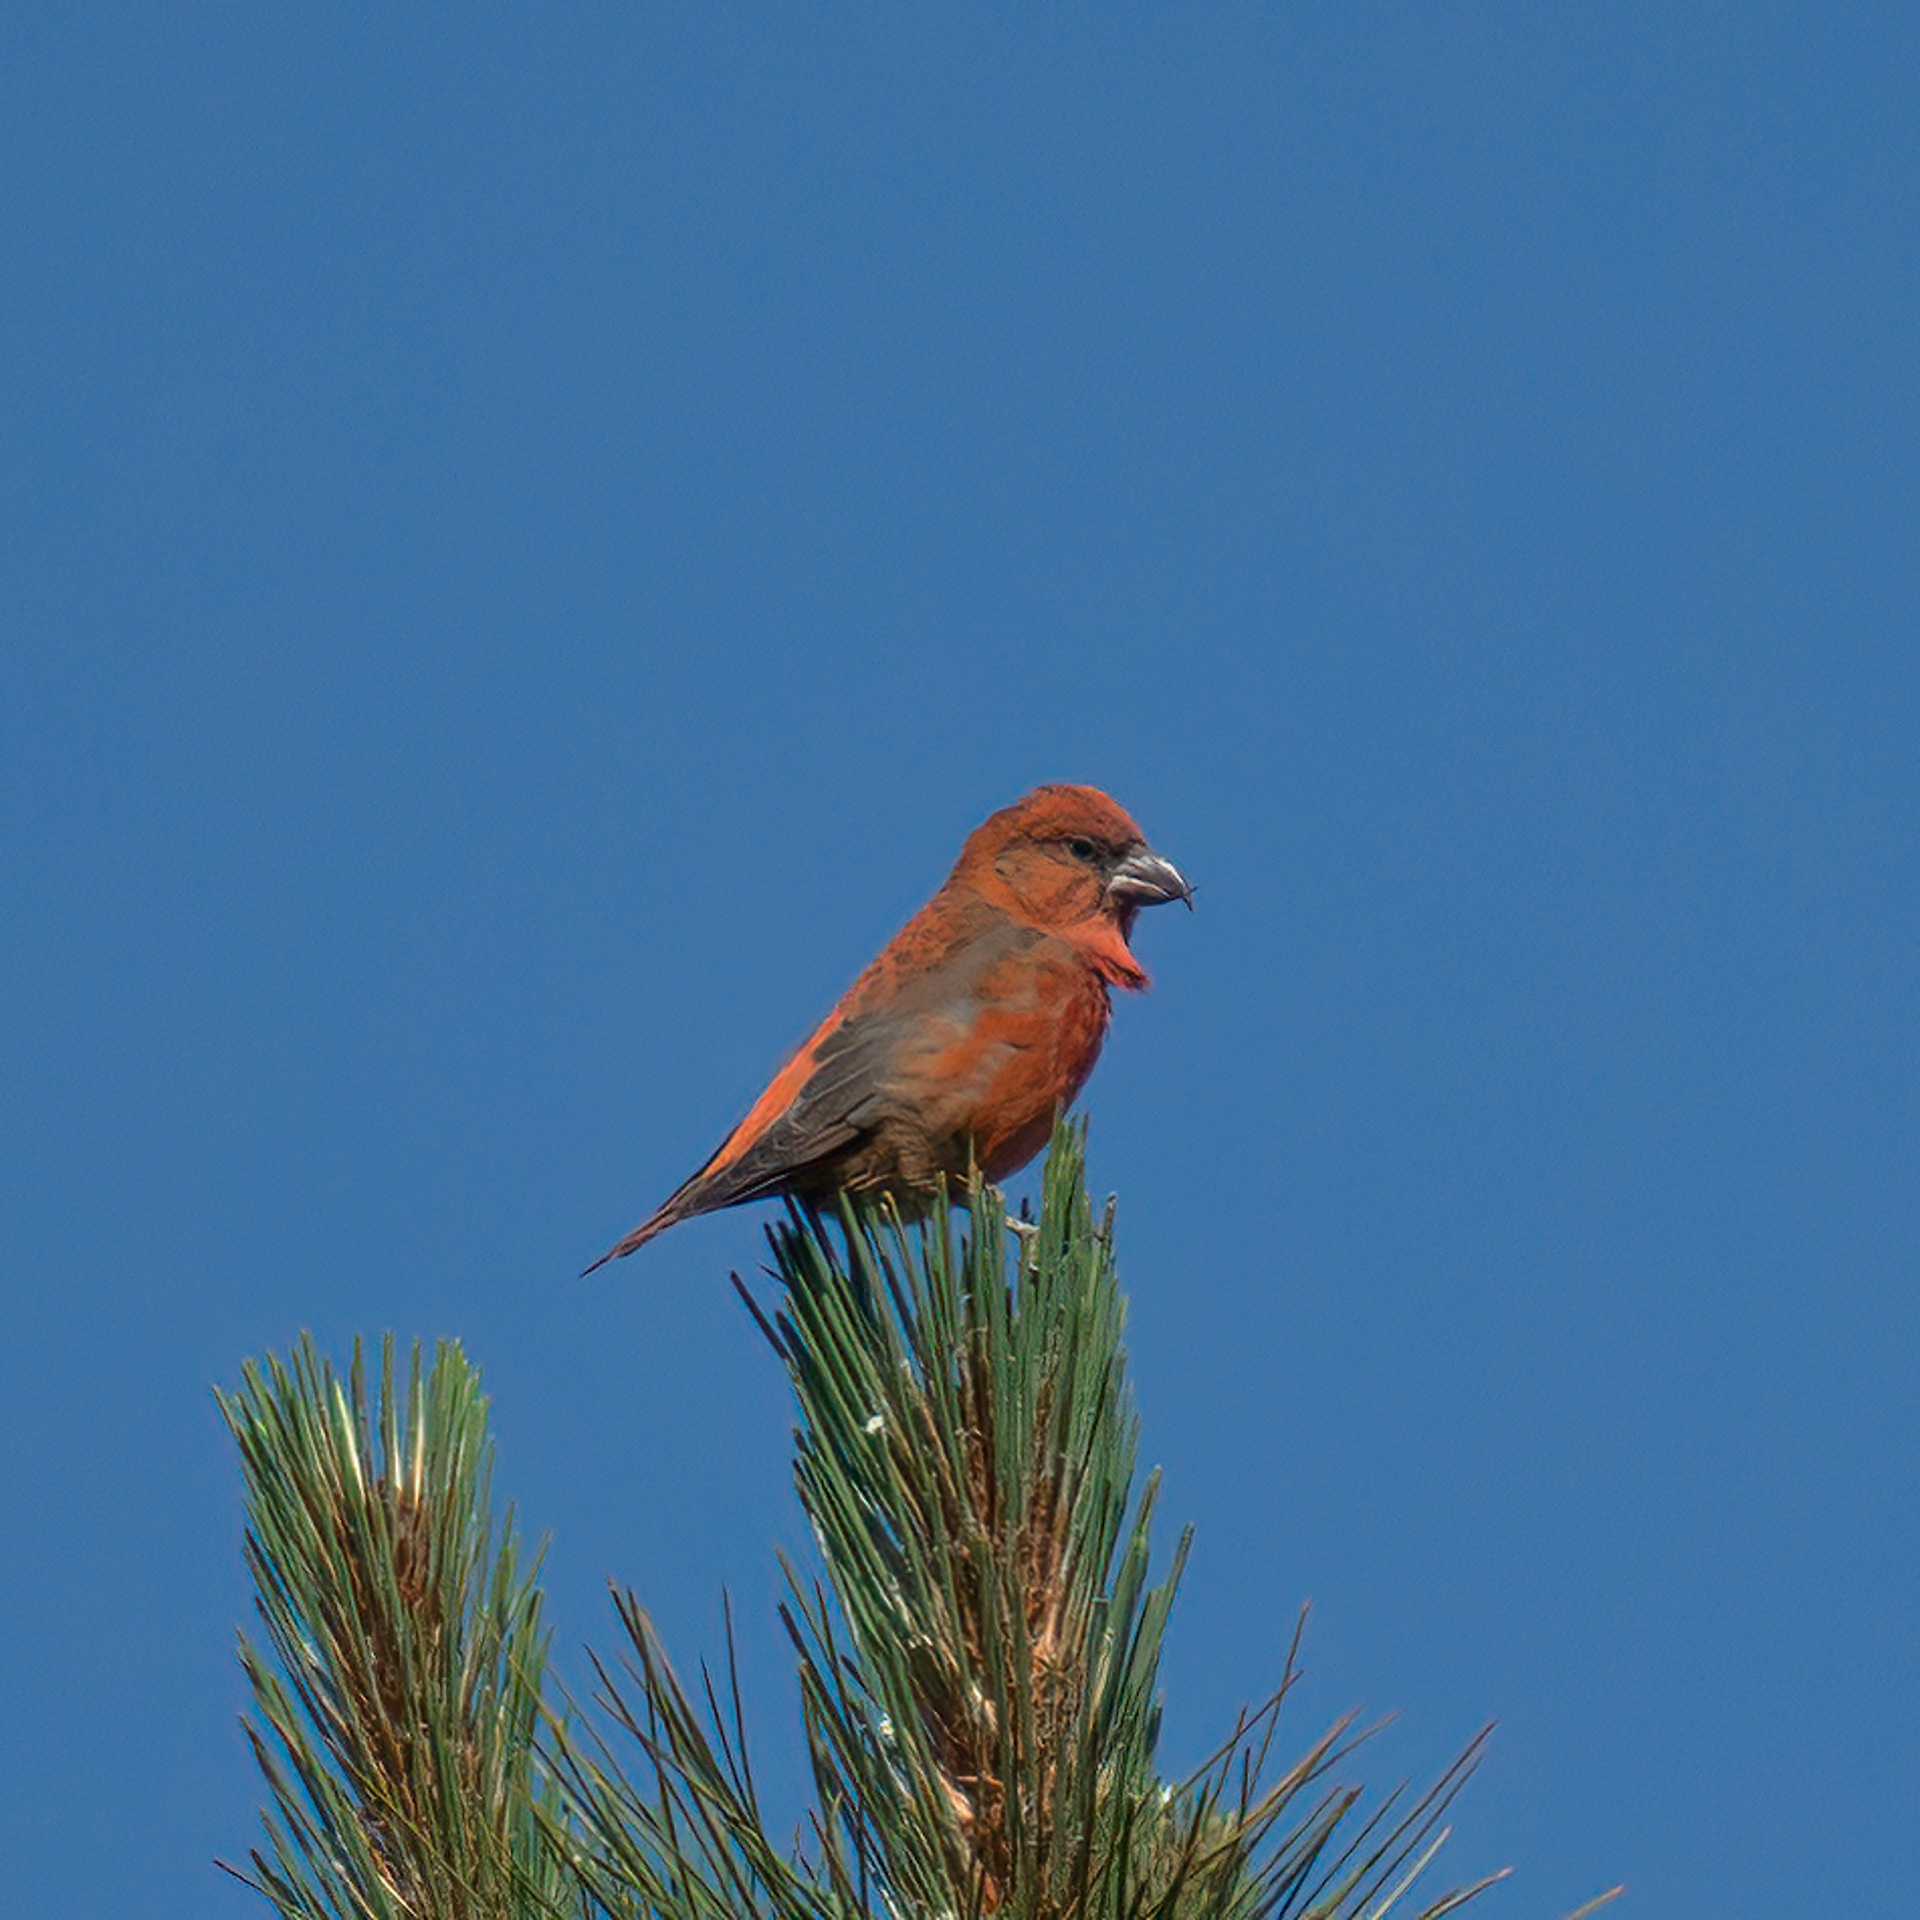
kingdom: Animalia
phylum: Chordata
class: Aves
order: Passeriformes
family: Fringillidae
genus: Loxia
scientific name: Loxia curvirostra
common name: Red crossbill
